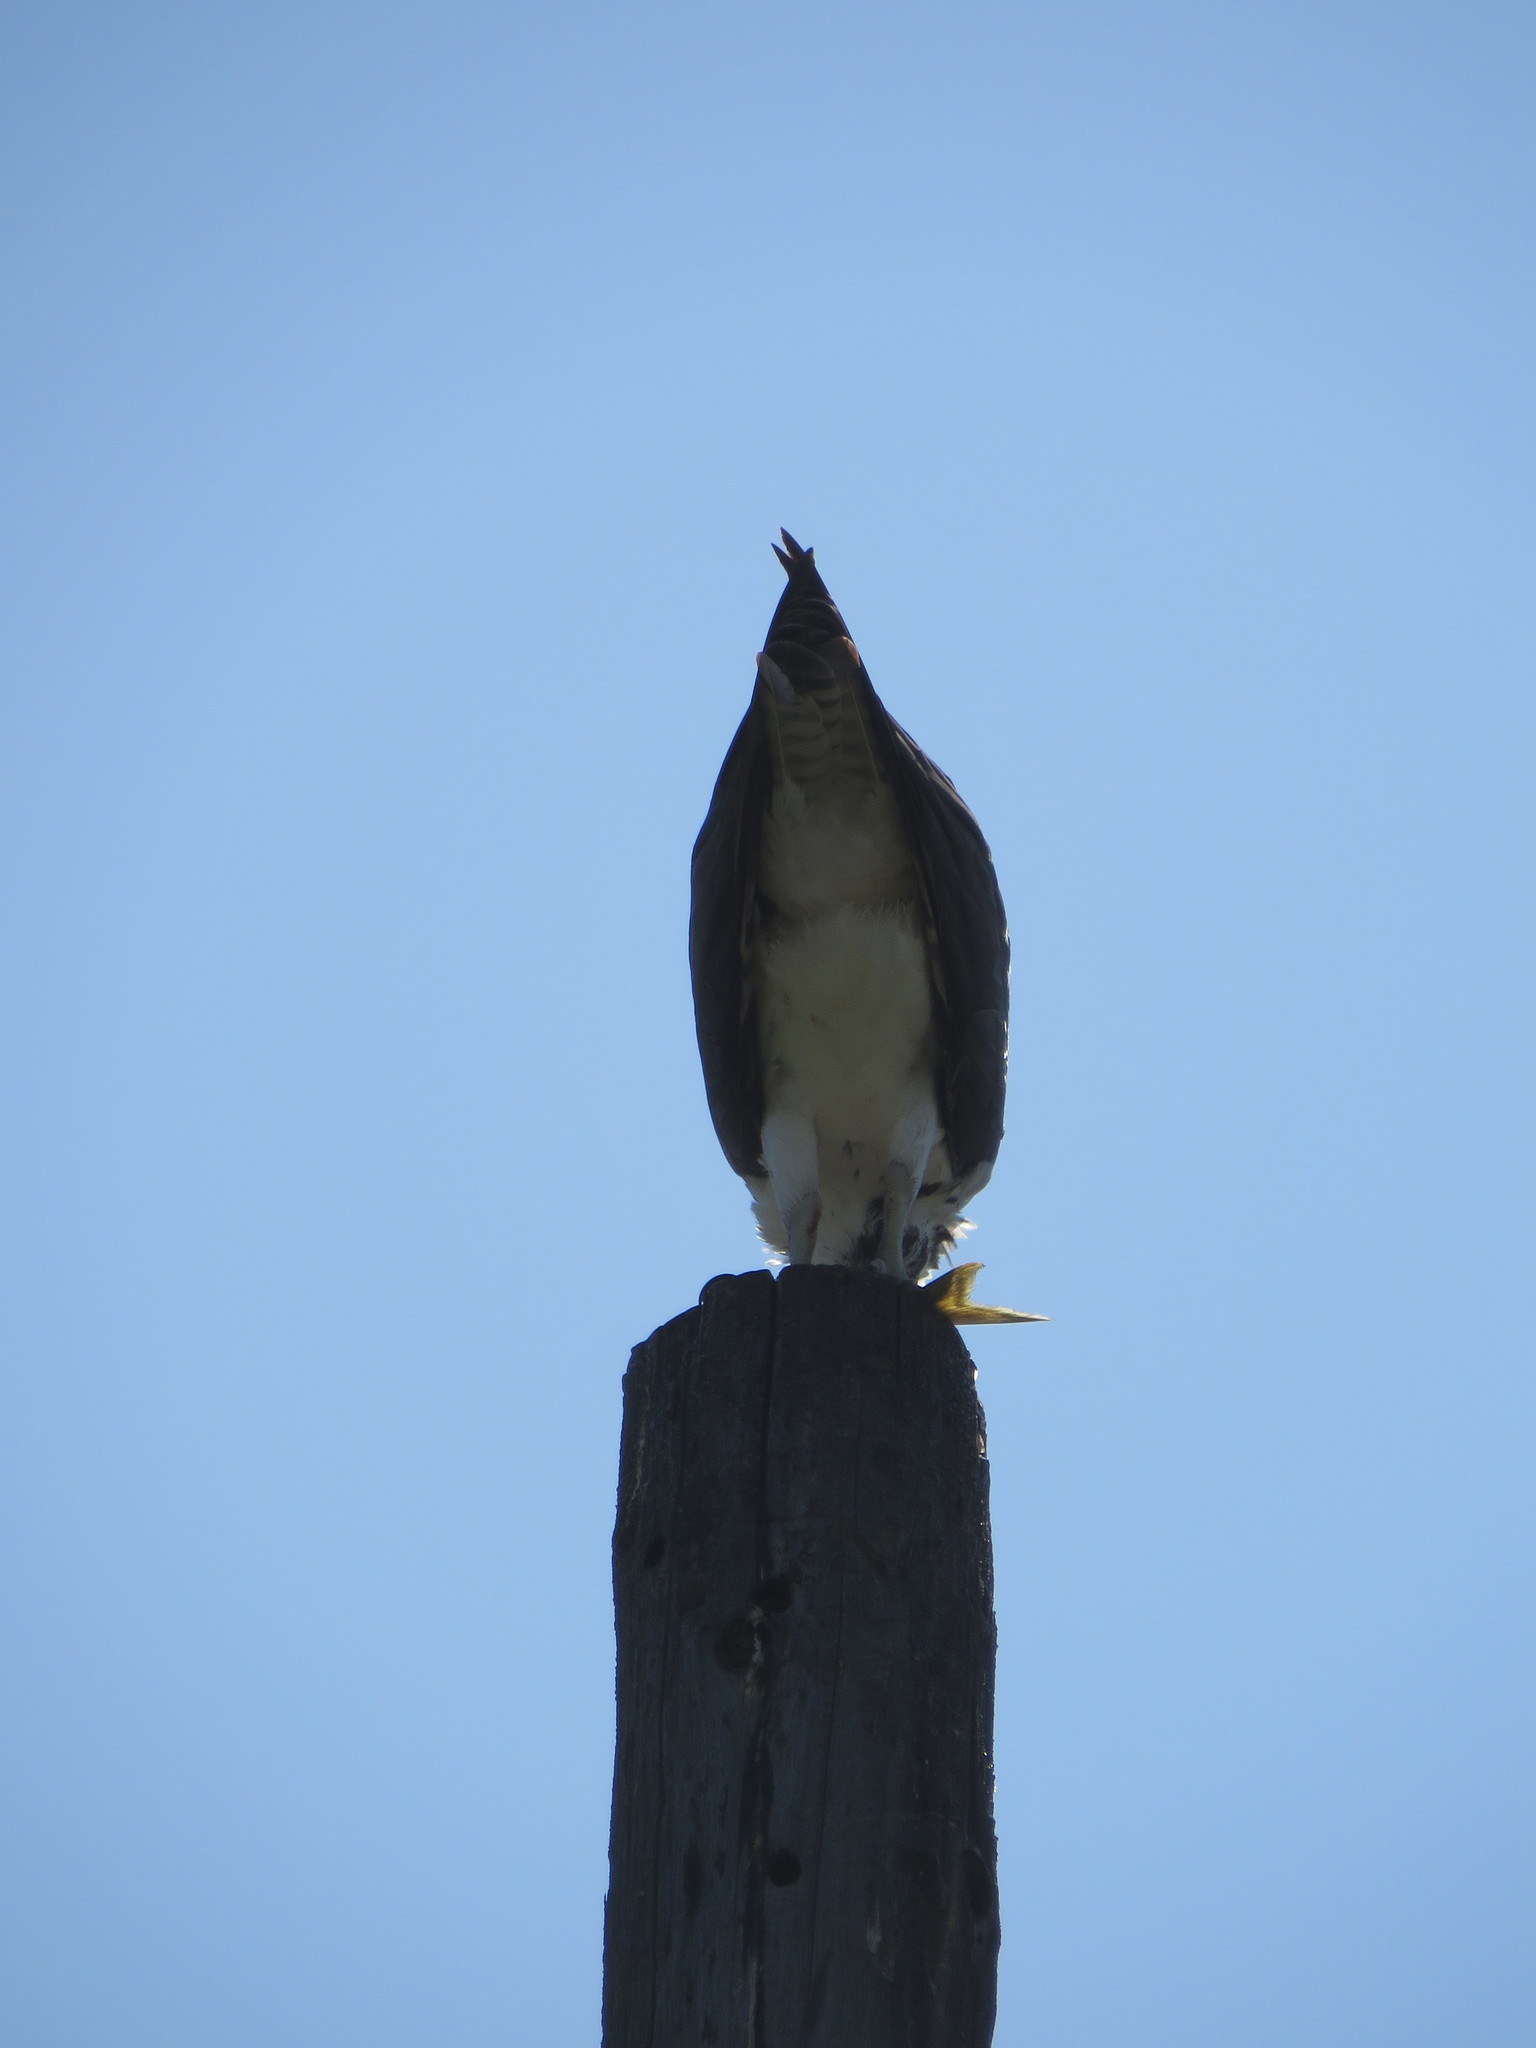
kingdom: Animalia
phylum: Chordata
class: Aves
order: Accipitriformes
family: Pandionidae
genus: Pandion
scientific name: Pandion haliaetus
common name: Osprey
